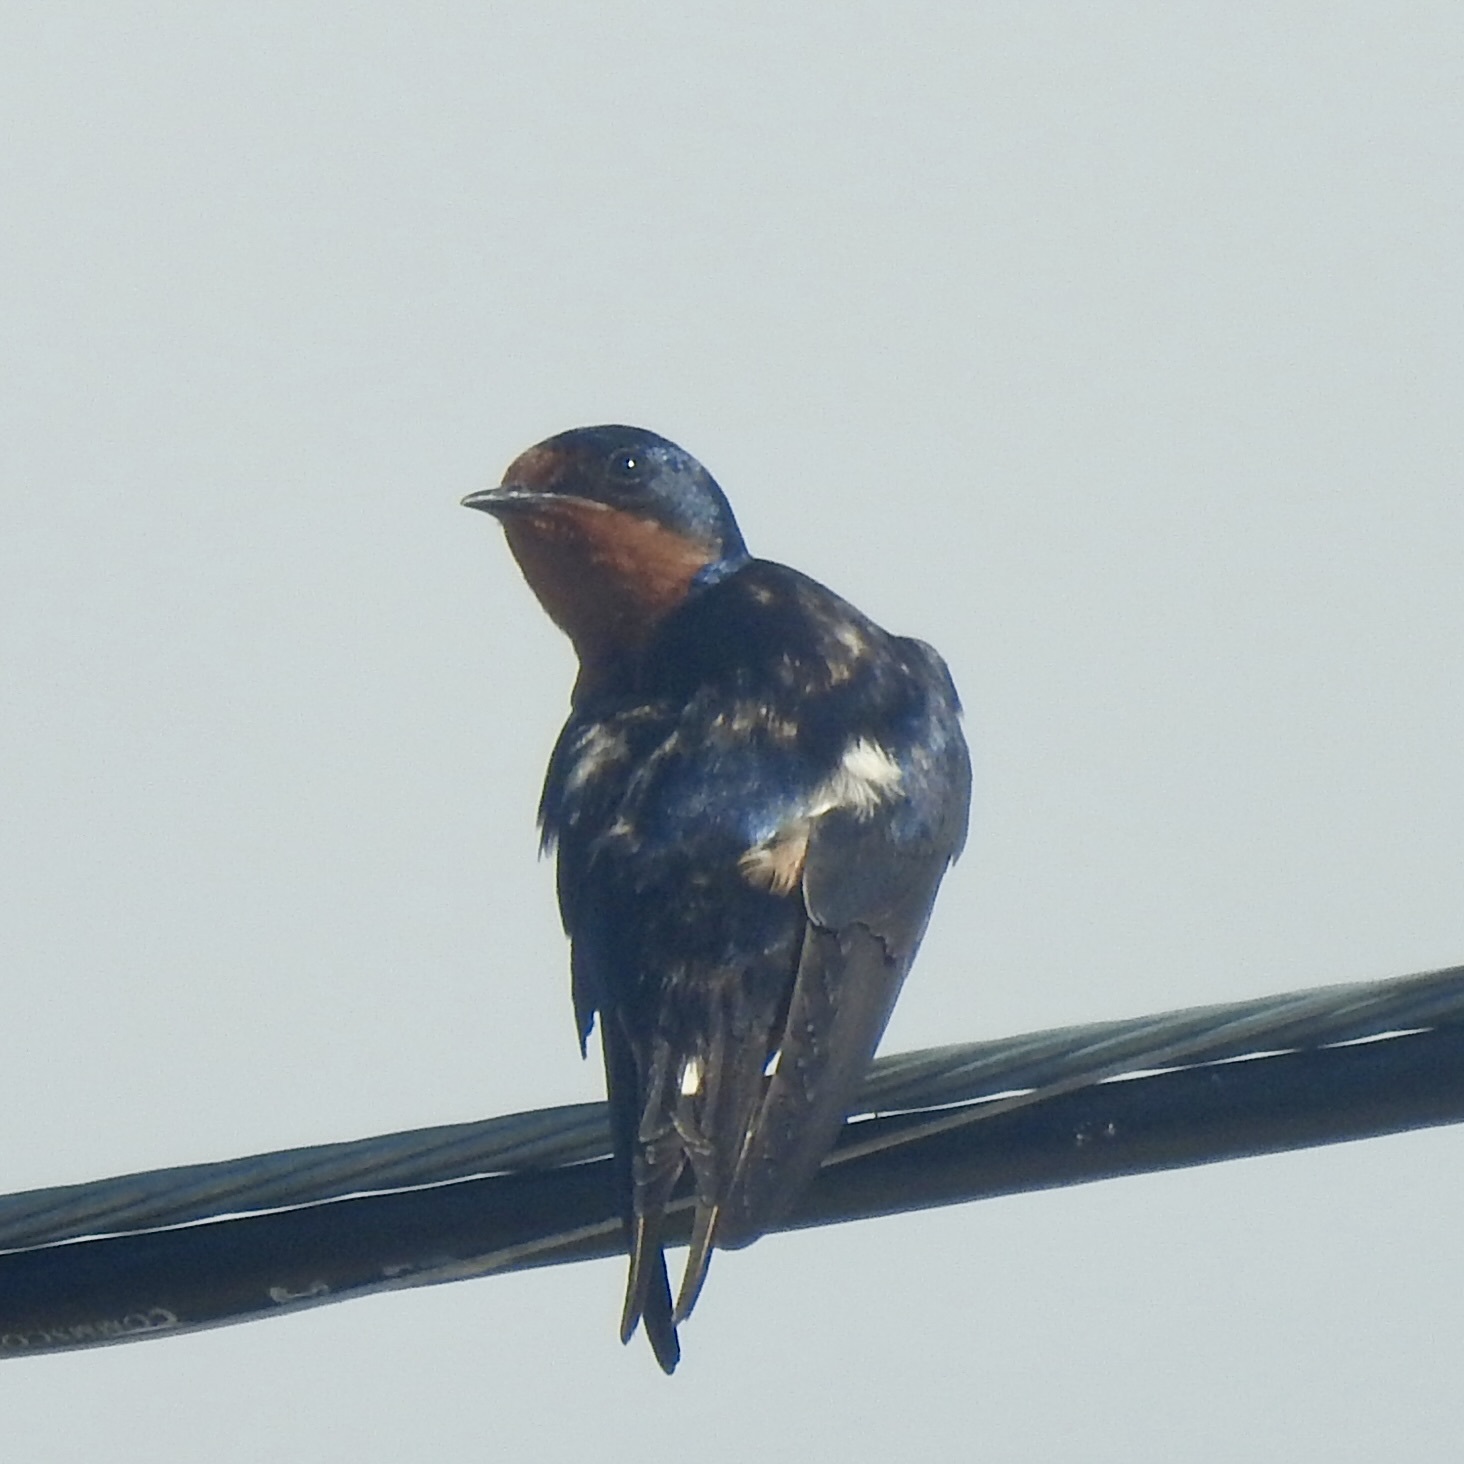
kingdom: Animalia
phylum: Chordata
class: Aves
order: Passeriformes
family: Hirundinidae
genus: Hirundo
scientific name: Hirundo rustica
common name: Barn swallow
